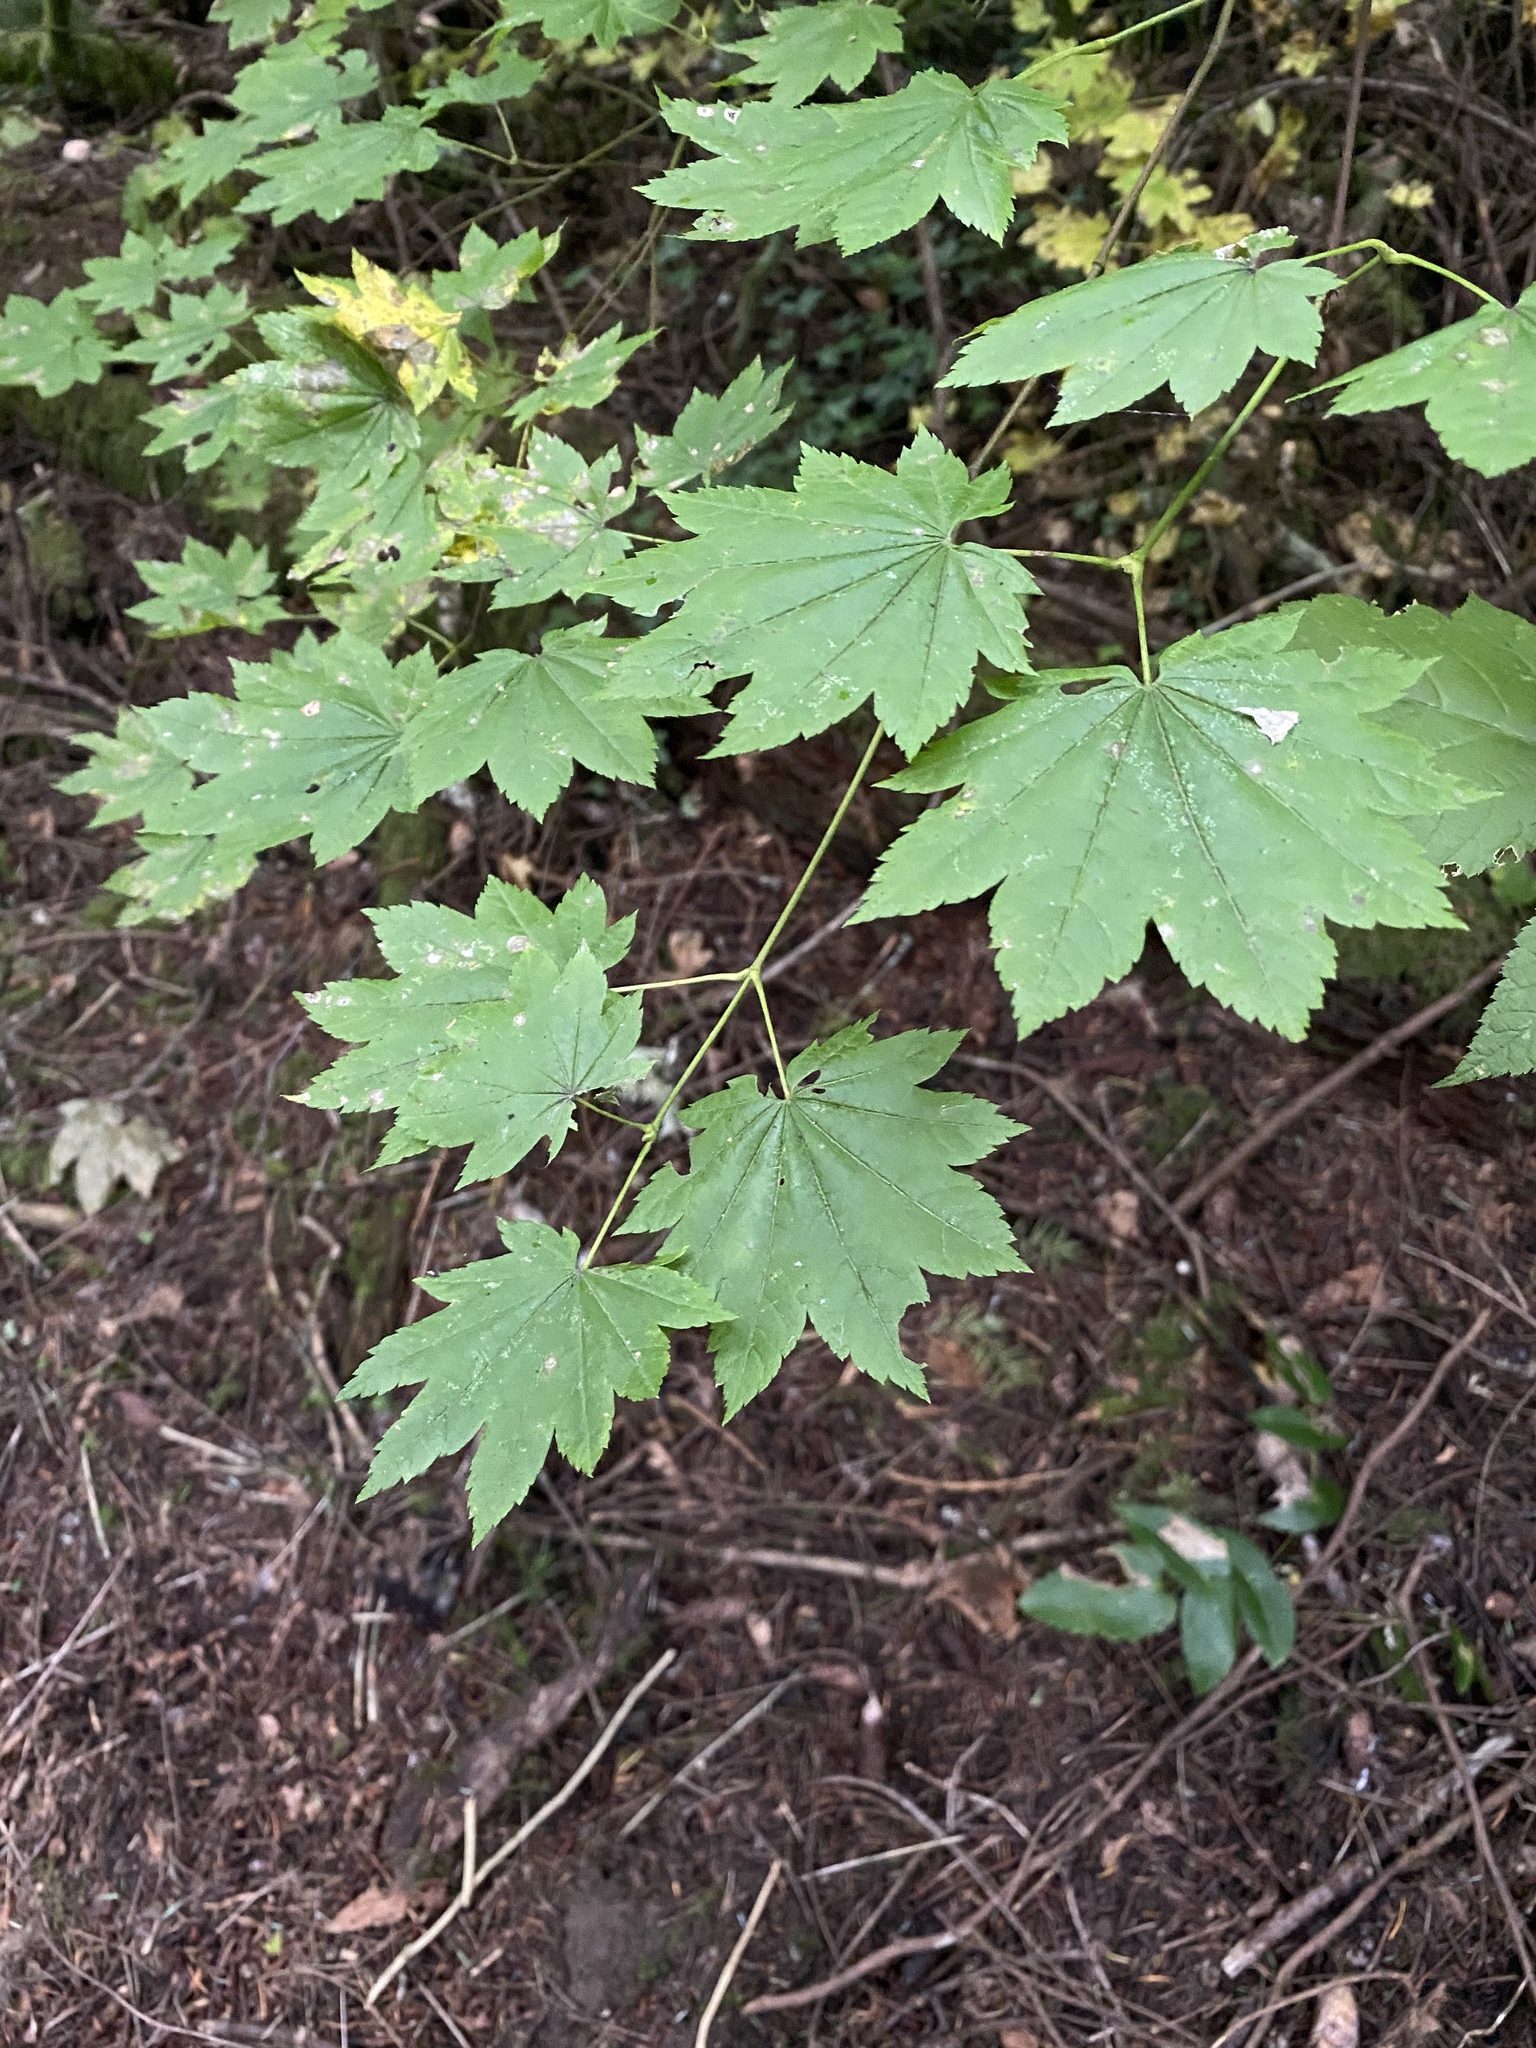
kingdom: Plantae
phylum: Tracheophyta
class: Magnoliopsida
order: Sapindales
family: Sapindaceae
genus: Acer
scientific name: Acer circinatum
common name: Vine maple
